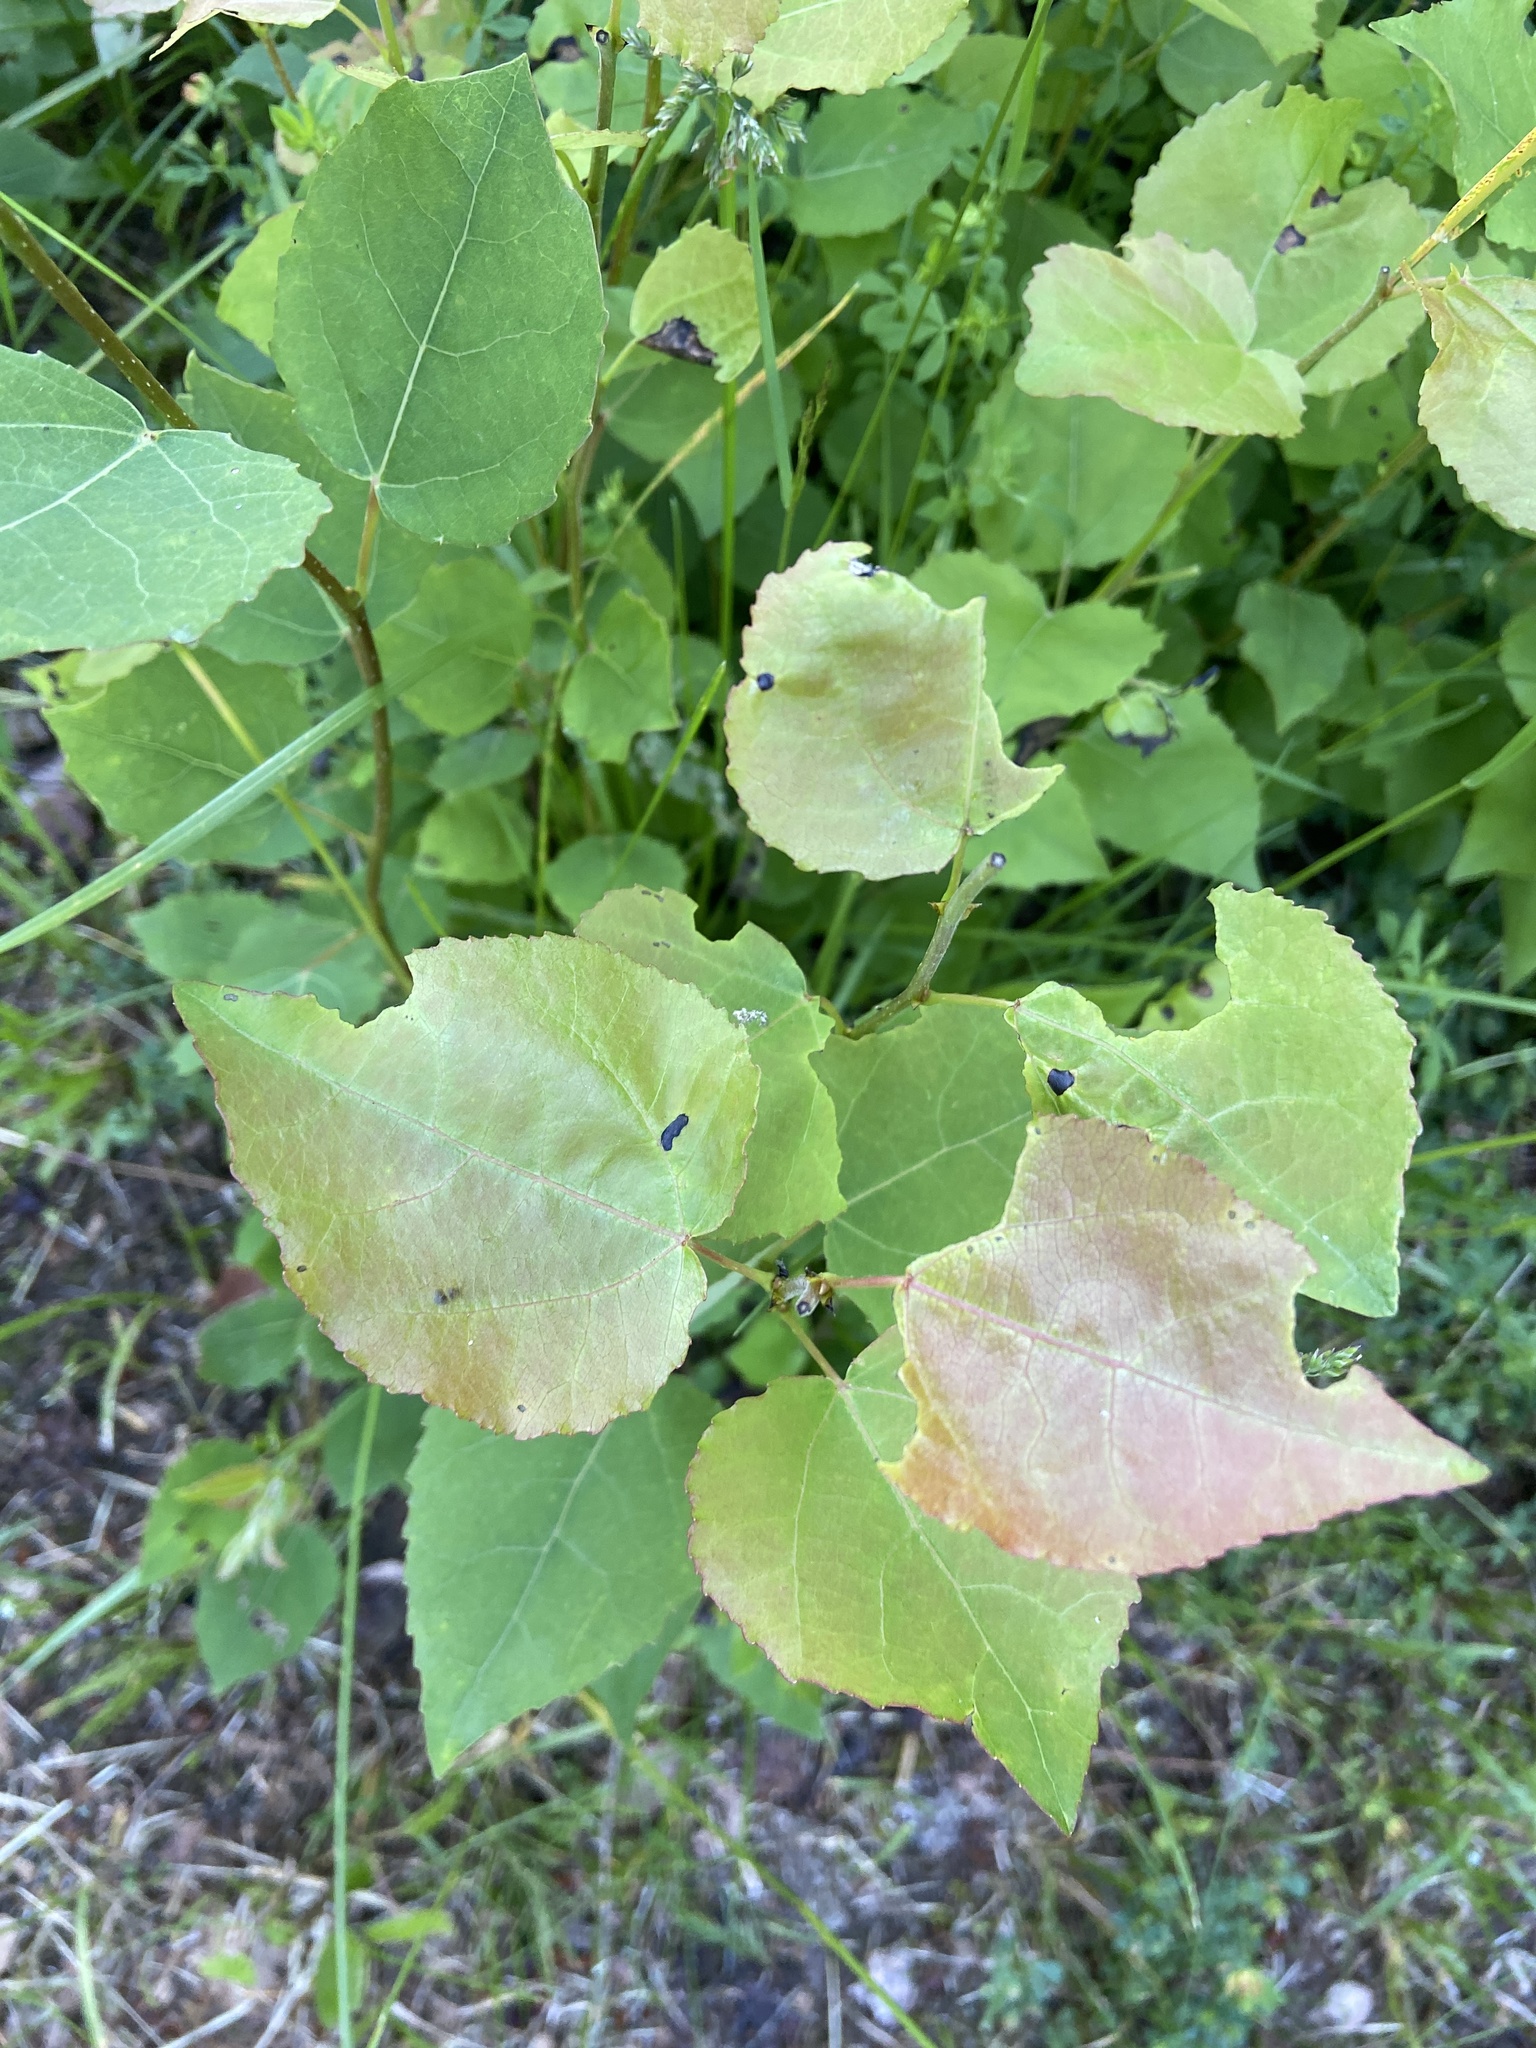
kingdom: Plantae
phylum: Tracheophyta
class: Magnoliopsida
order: Malpighiales
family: Salicaceae
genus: Populus
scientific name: Populus tremula
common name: European aspen
